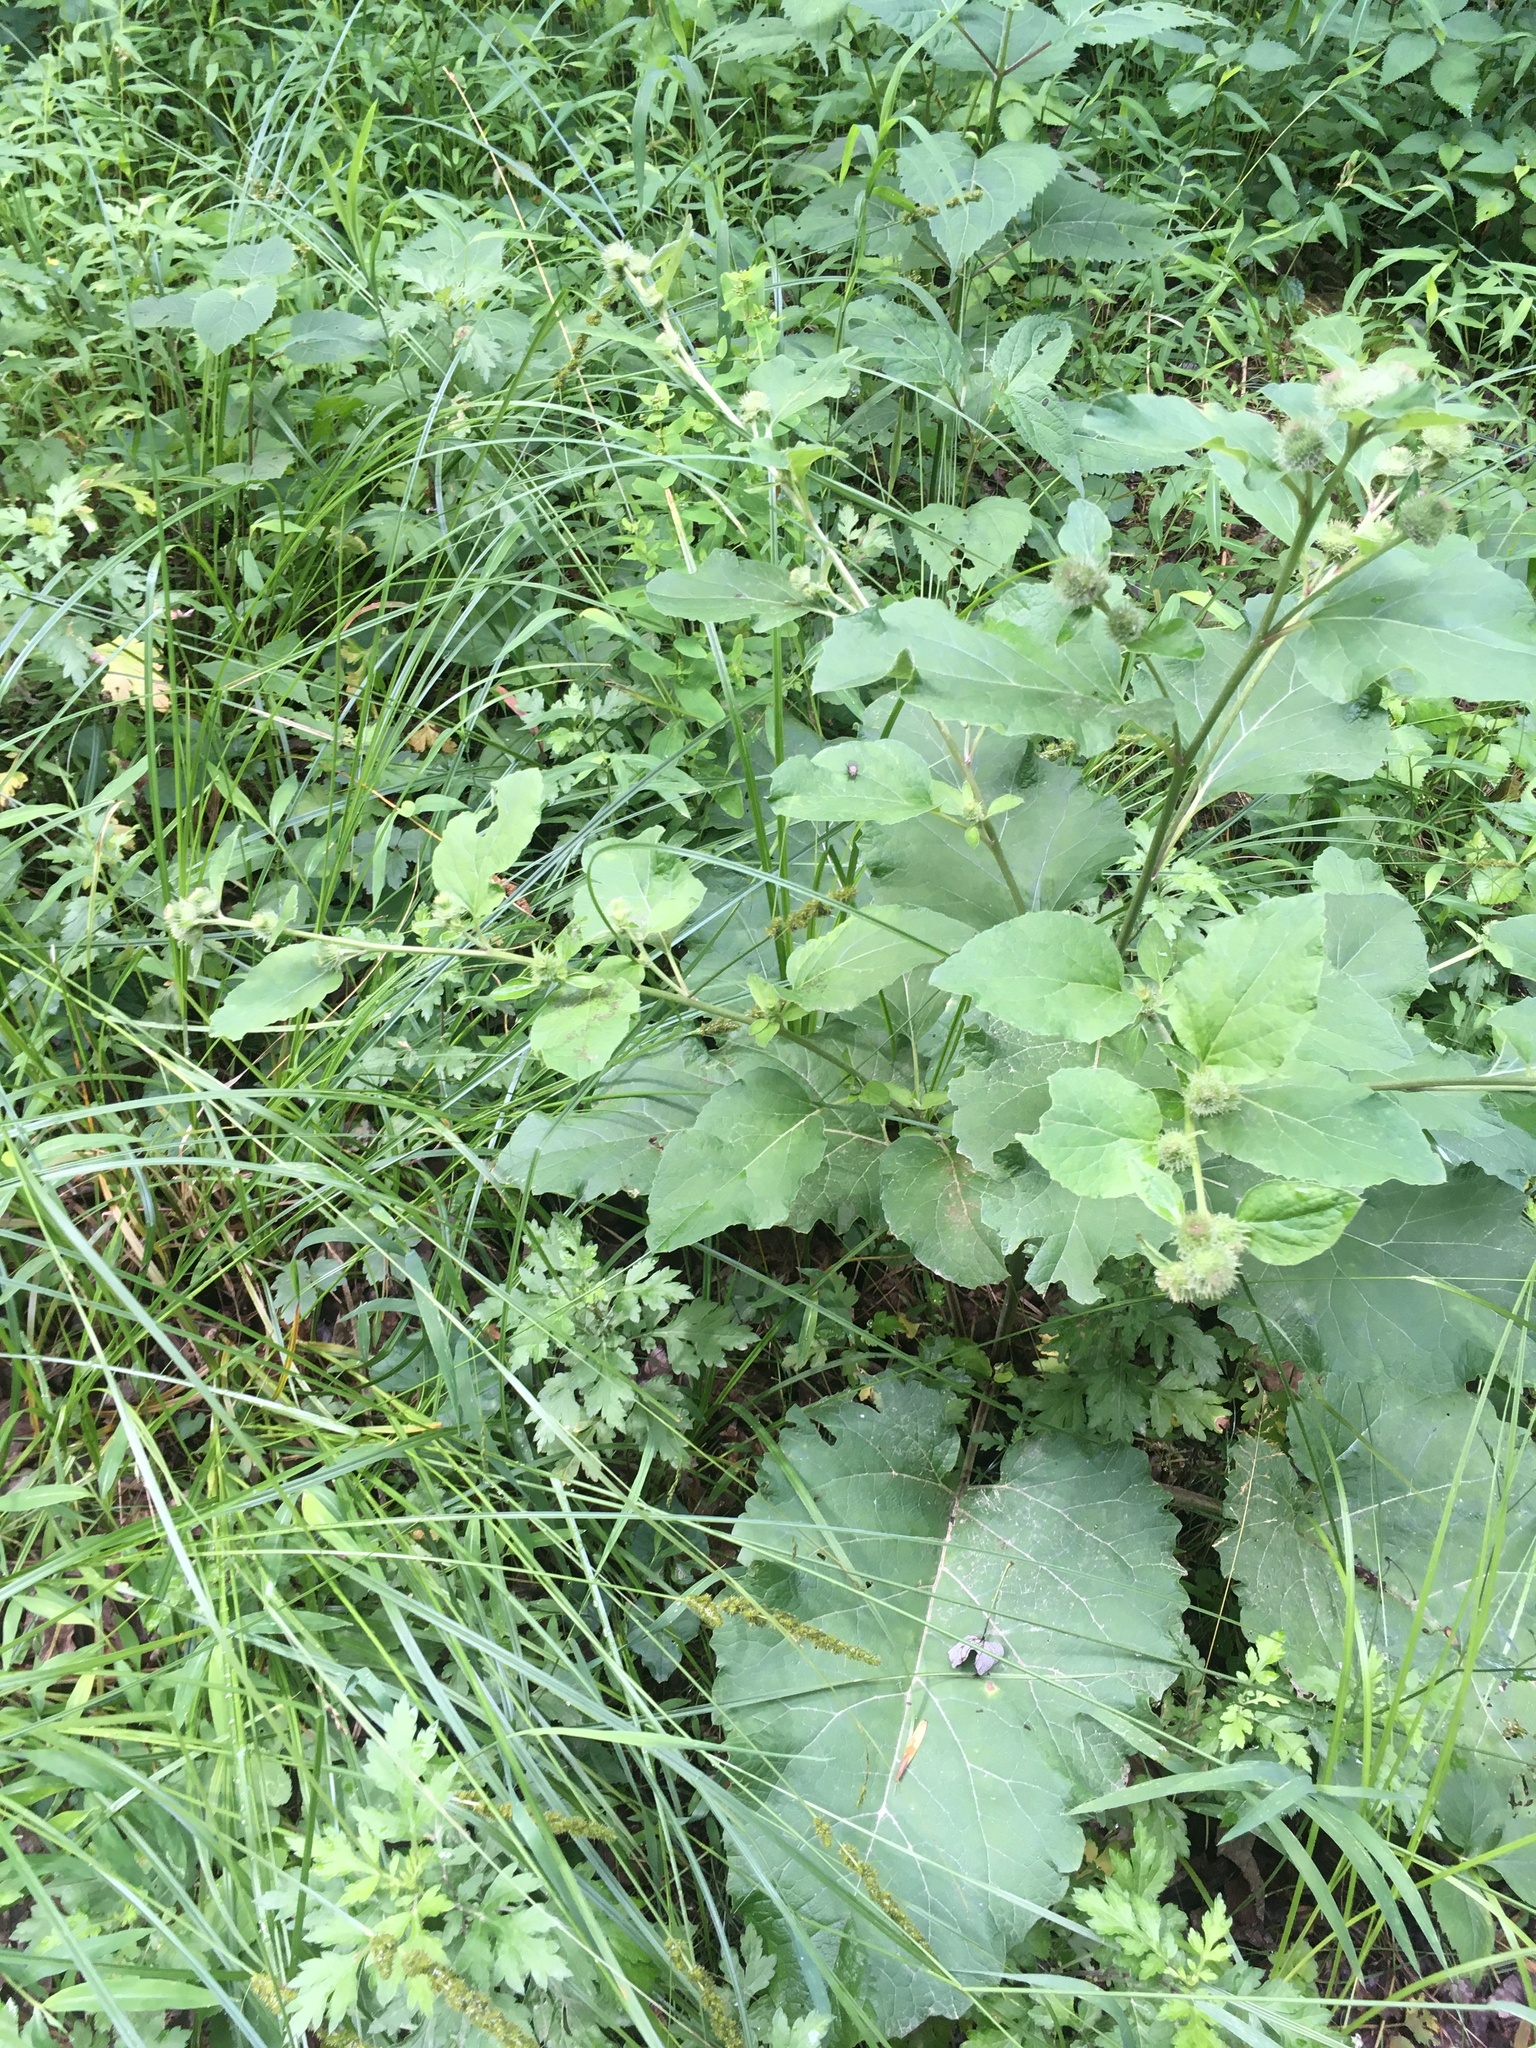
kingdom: Plantae
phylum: Tracheophyta
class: Magnoliopsida
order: Asterales
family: Asteraceae
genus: Arctium
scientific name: Arctium minus
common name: Lesser burdock
